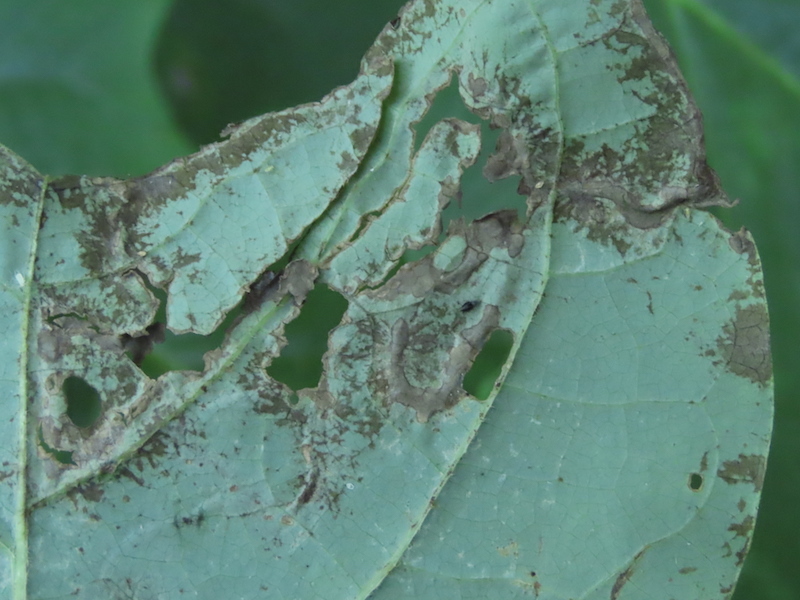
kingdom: Animalia
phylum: Arthropoda
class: Insecta
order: Lepidoptera
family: Gracillariidae
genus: Phyllocnistis
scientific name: Phyllocnistis liriodendronella
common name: Tulip tree leaf miner
